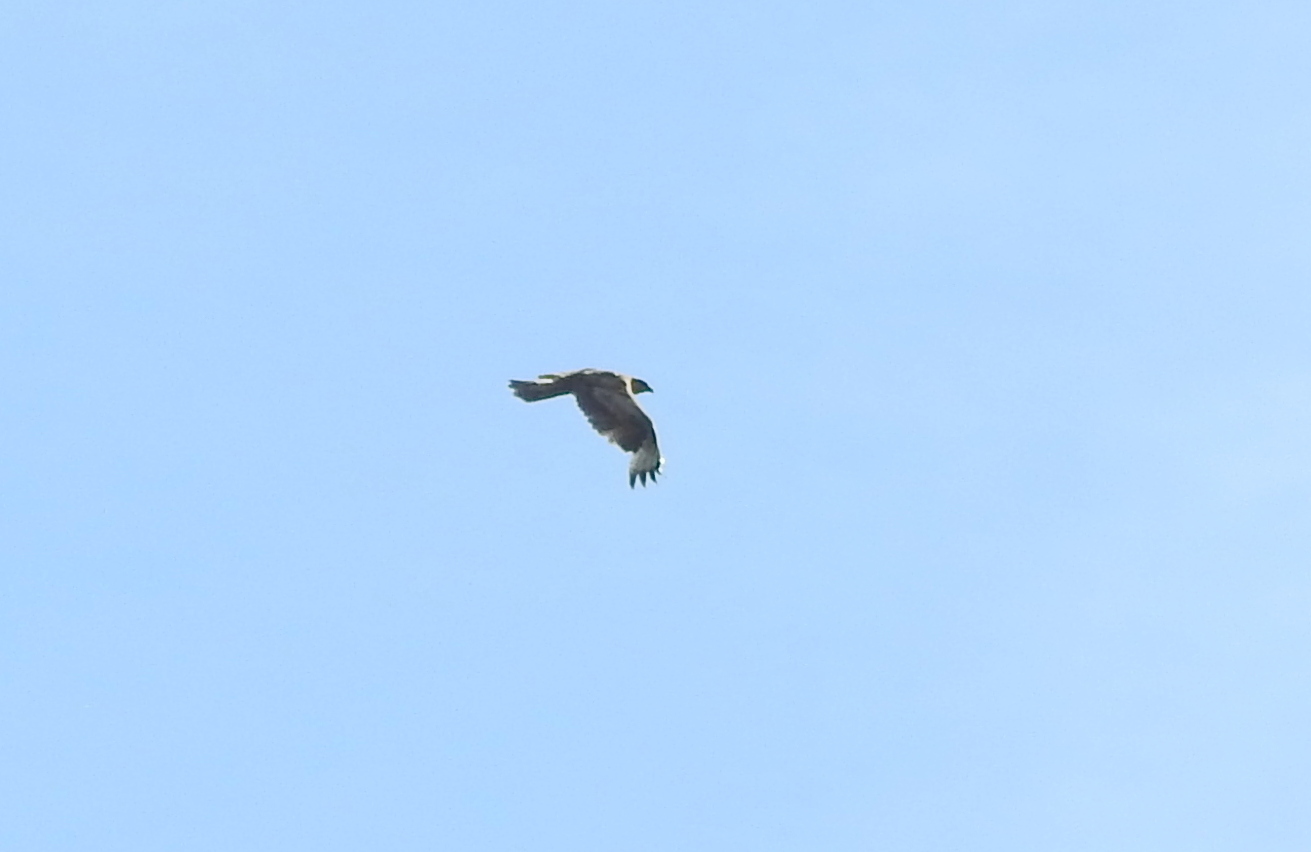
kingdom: Animalia
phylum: Chordata
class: Aves
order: Accipitriformes
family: Accipitridae
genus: Buteo
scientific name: Buteo japonicus
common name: Eastern buzzard
